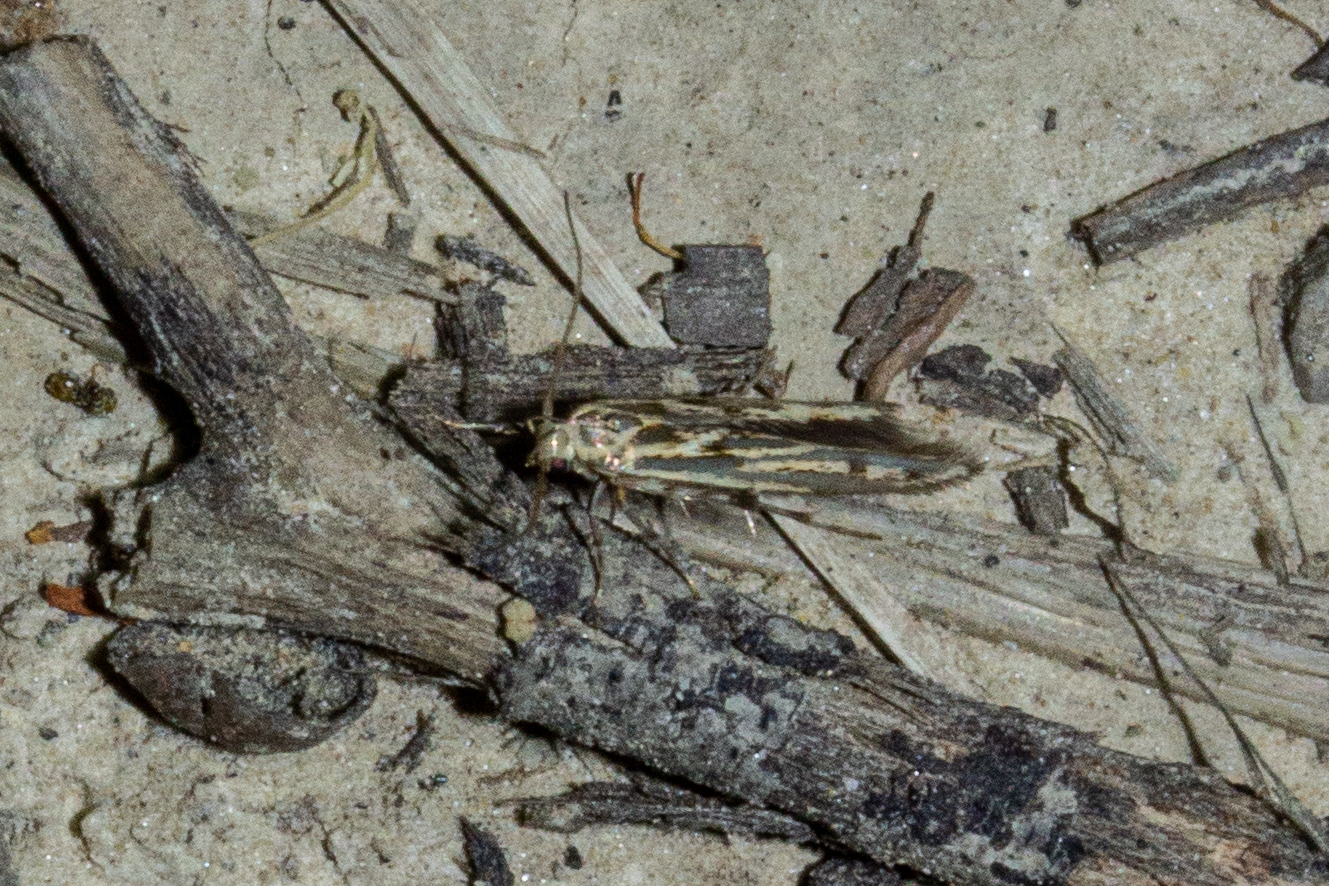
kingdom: Animalia
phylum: Arthropoda
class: Insecta
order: Lepidoptera
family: Stathmopodidae
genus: Stathmopoda
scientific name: Stathmopoda plumbiflua
